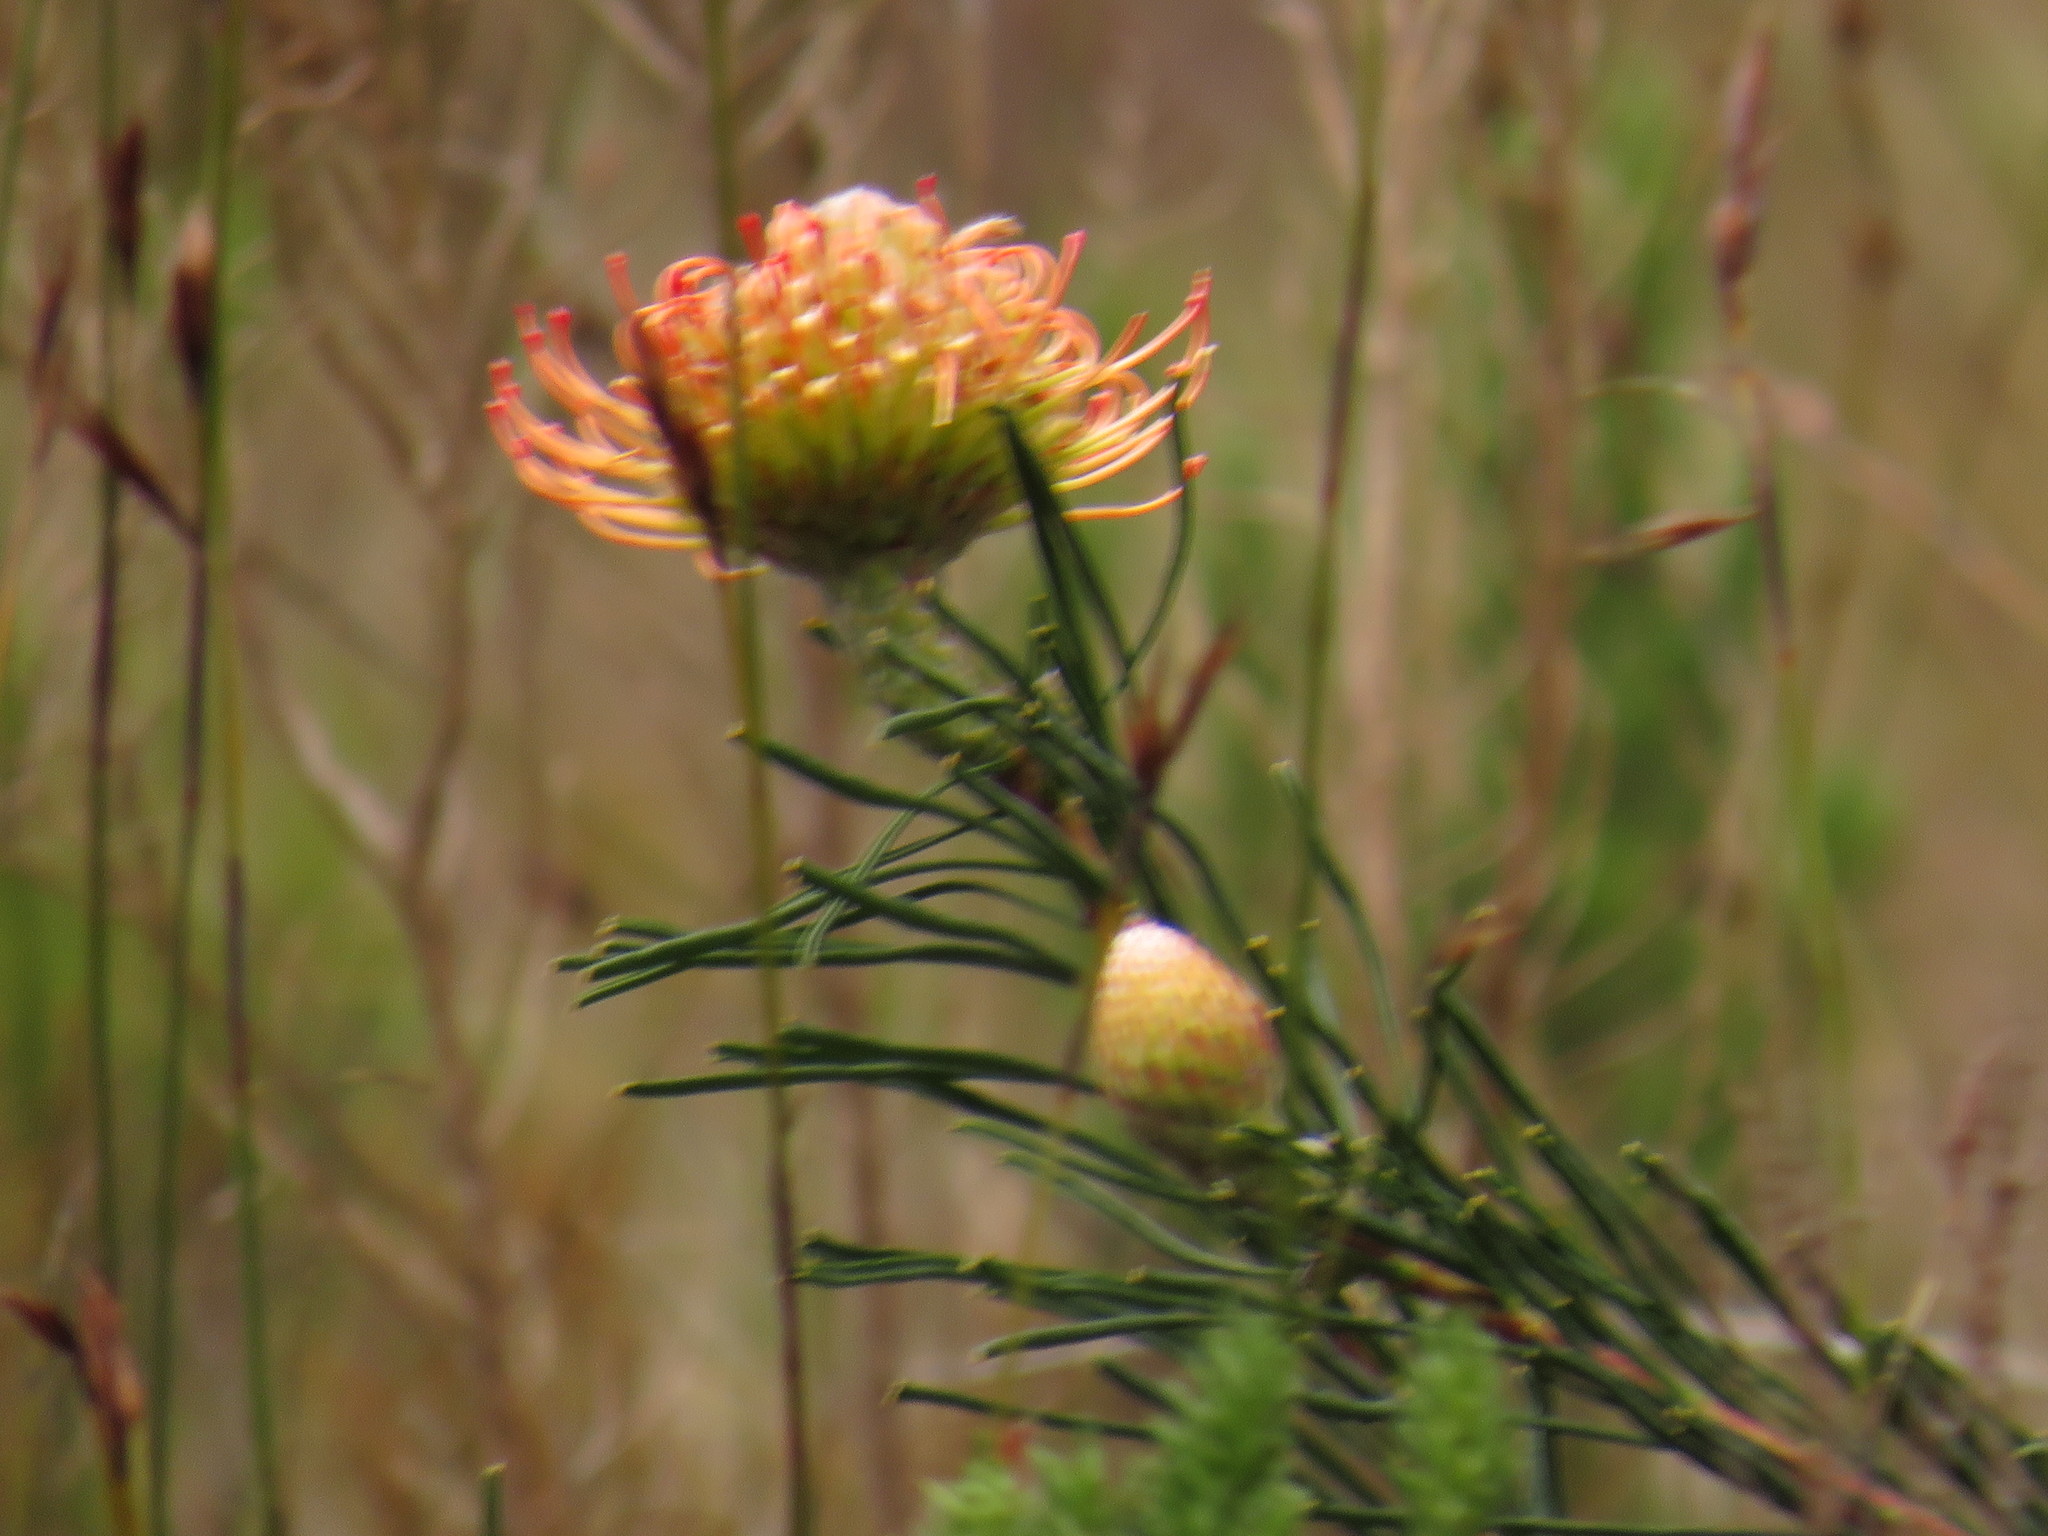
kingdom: Plantae
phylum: Tracheophyta
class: Magnoliopsida
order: Proteales
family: Proteaceae
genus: Leucospermum
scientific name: Leucospermum lineare
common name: Needle-leaf pincushion
